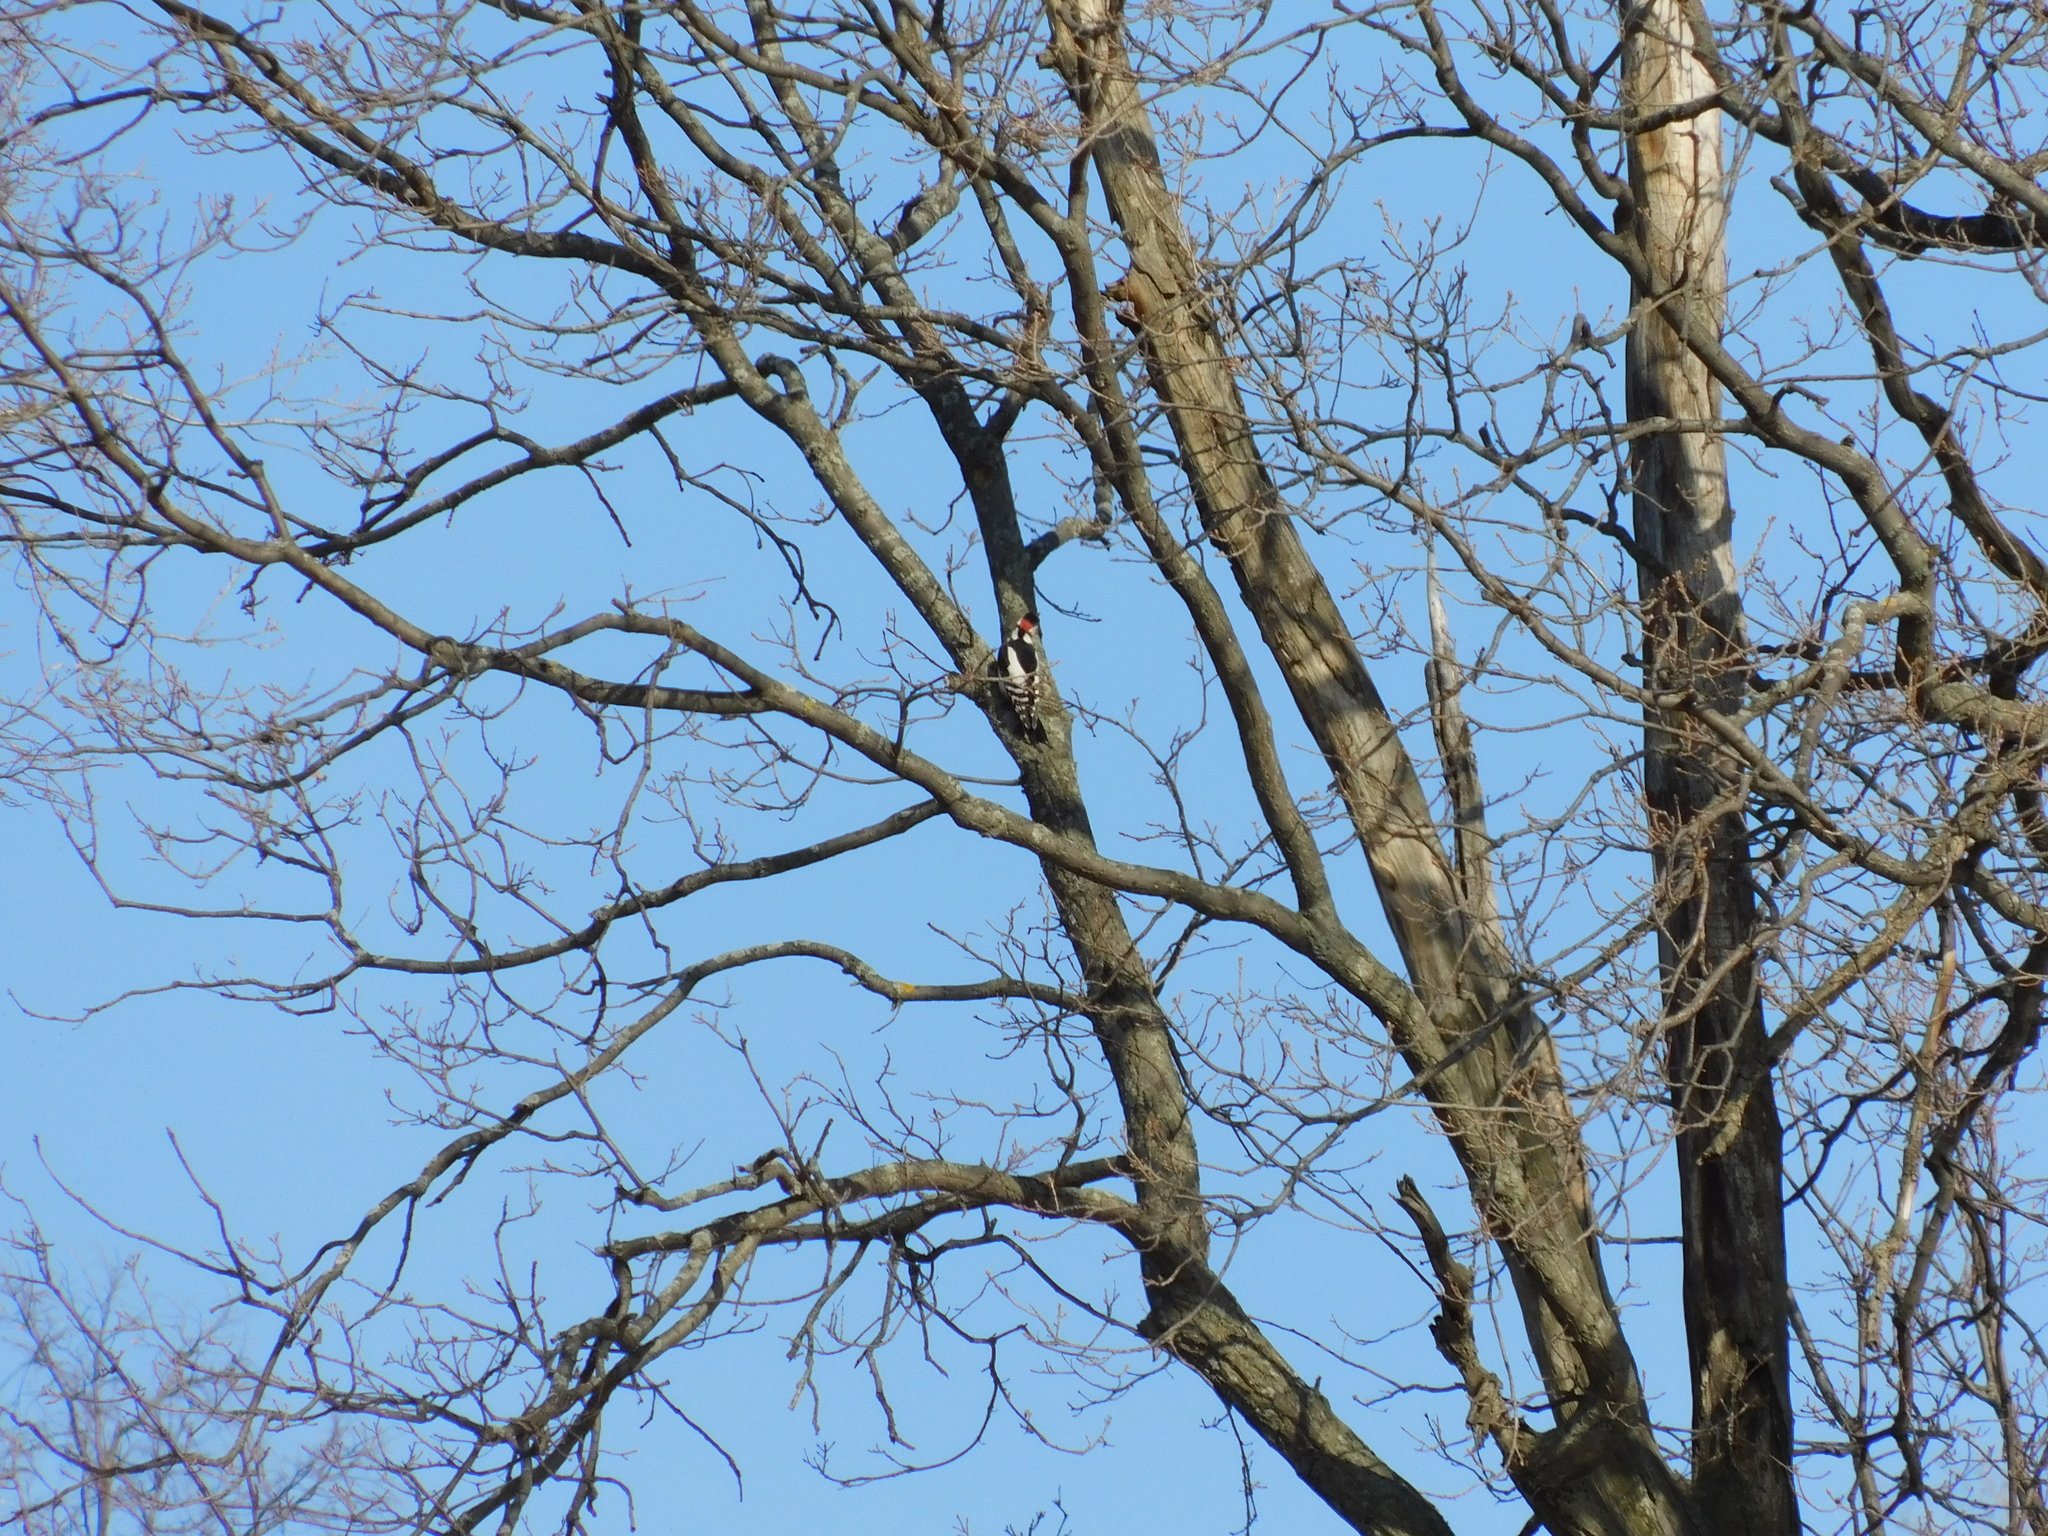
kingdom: Animalia
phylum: Chordata
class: Aves
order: Piciformes
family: Picidae
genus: Dendrocopos
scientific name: Dendrocopos major
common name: Great spotted woodpecker
